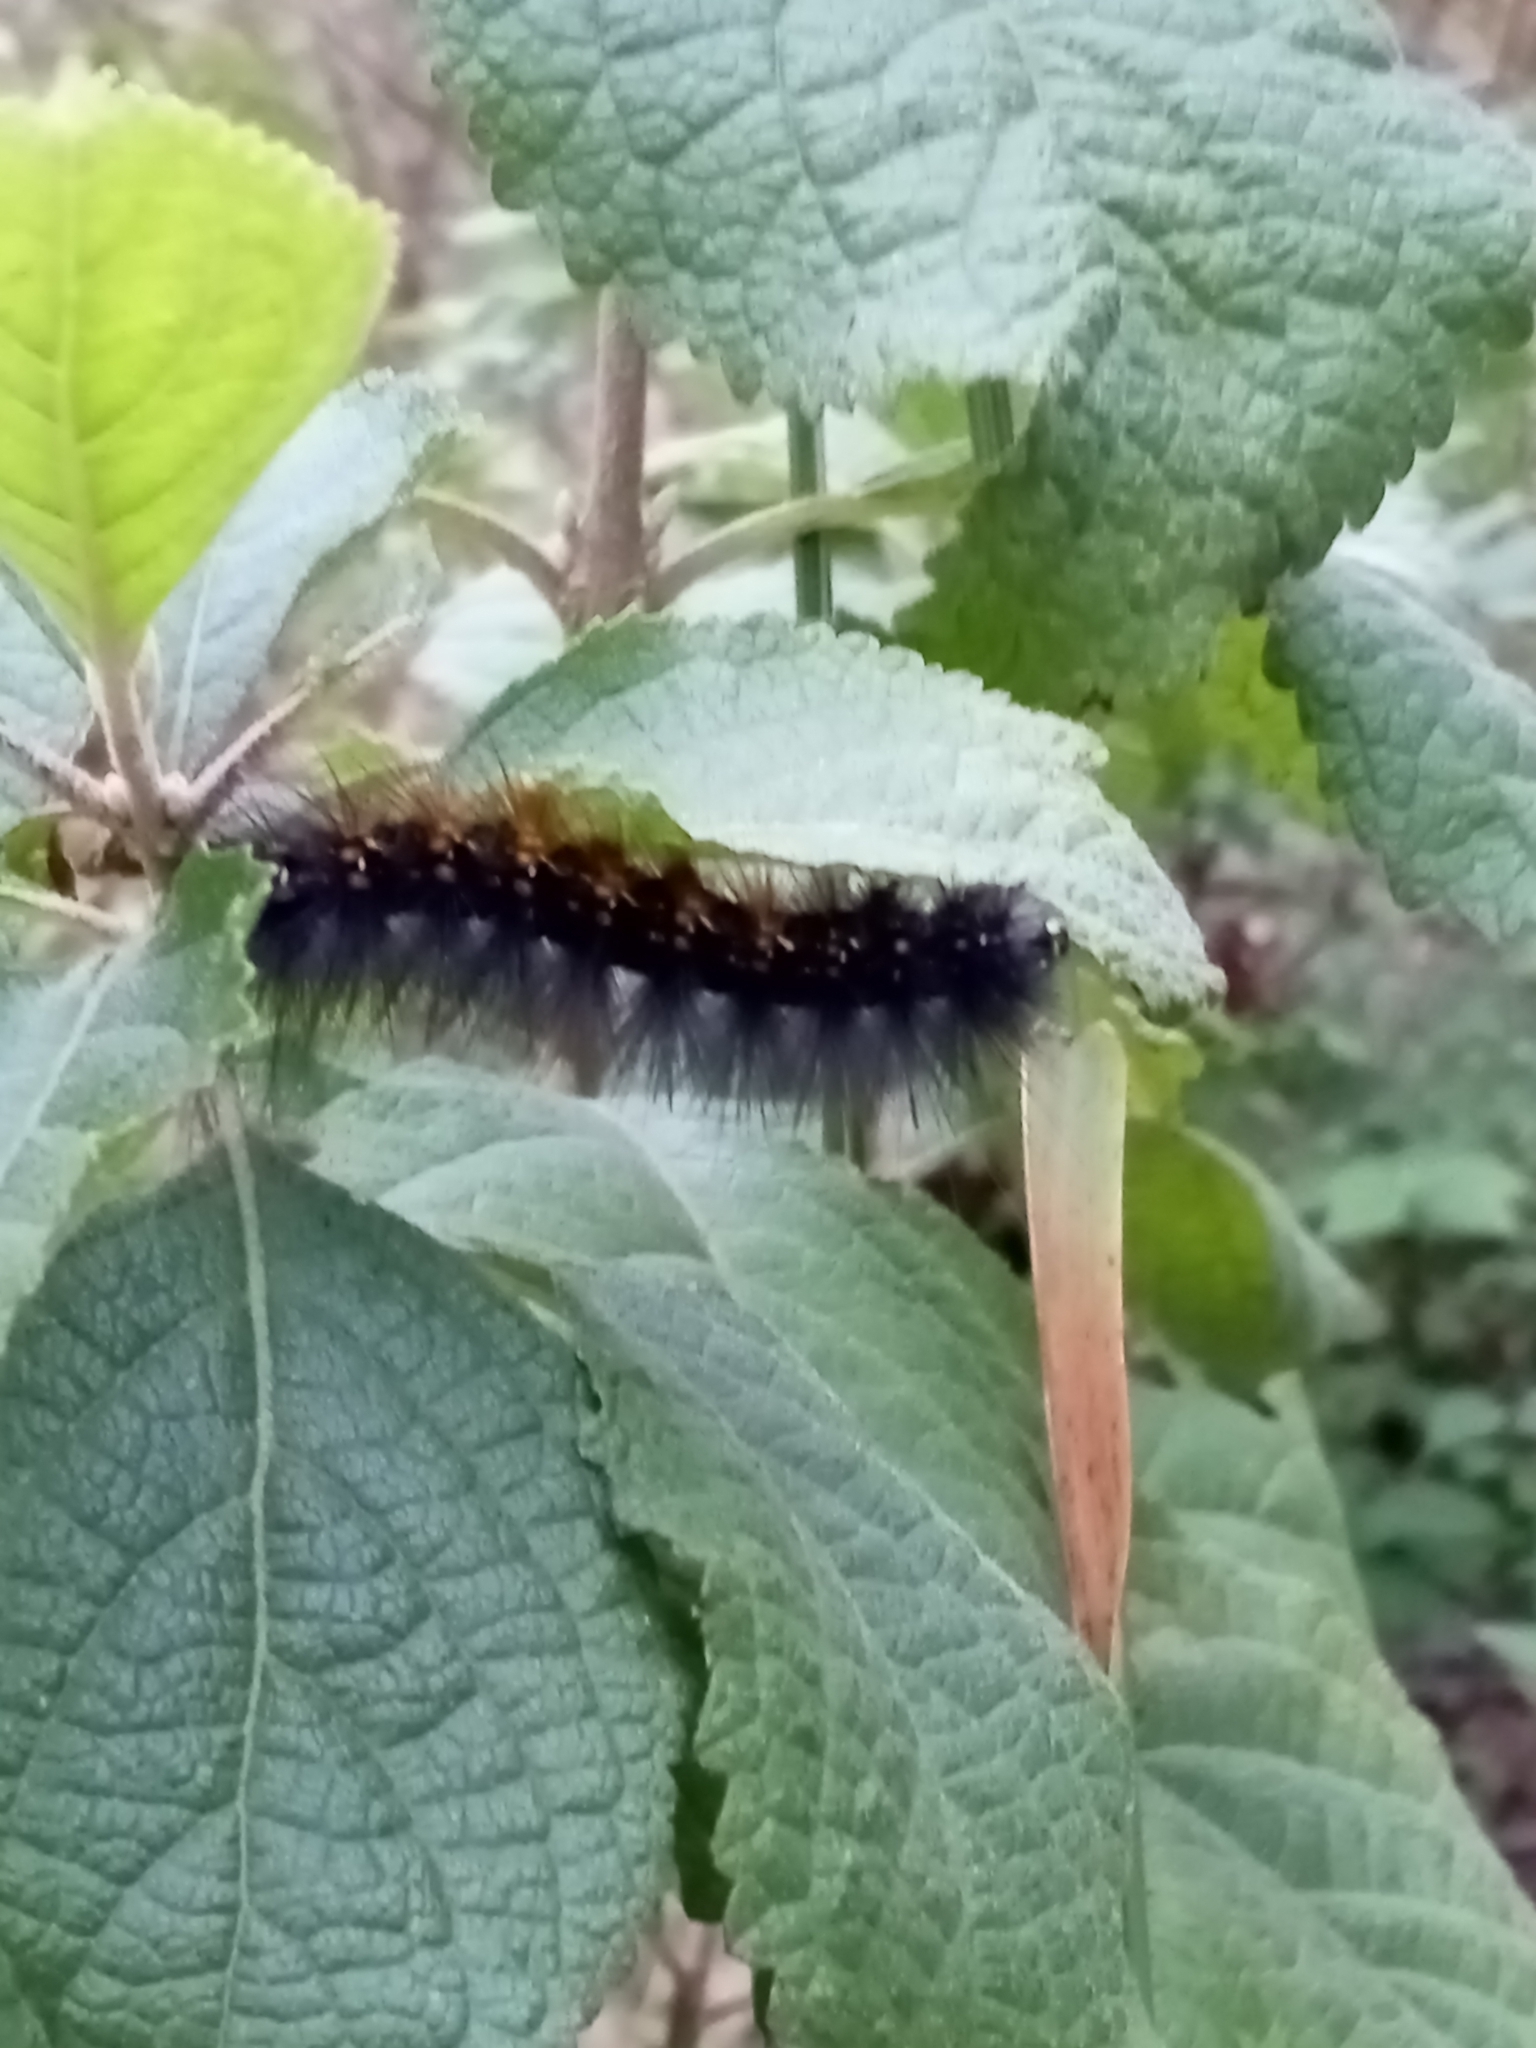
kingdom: Animalia
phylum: Arthropoda
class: Insecta
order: Lepidoptera
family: Erebidae
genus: Estigmene
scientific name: Estigmene acrea
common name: Salt marsh moth
